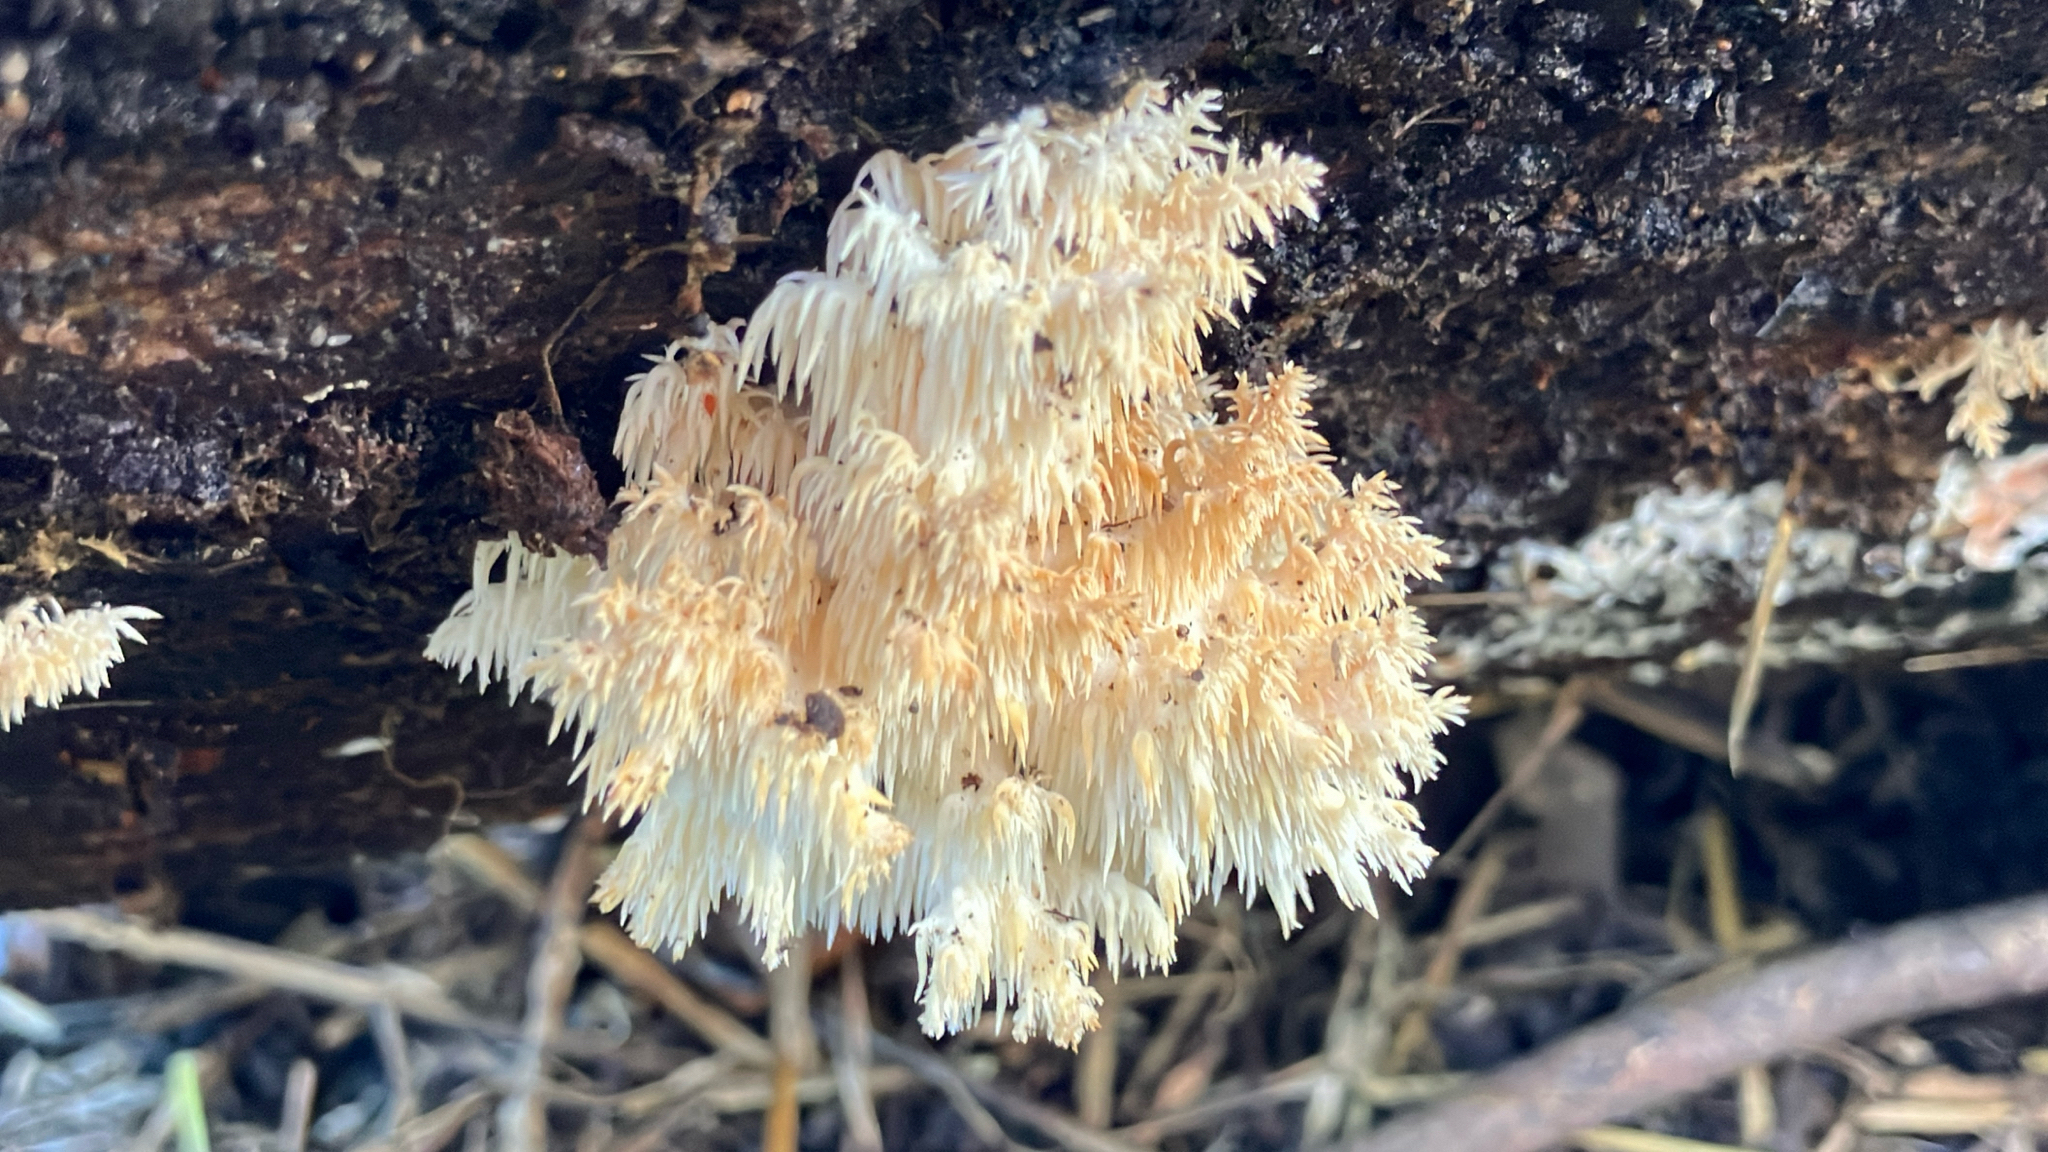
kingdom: Fungi
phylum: Basidiomycota
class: Agaricomycetes
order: Russulales
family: Hericiaceae
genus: Hericium
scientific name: Hericium coralloides
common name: Coral tooth
